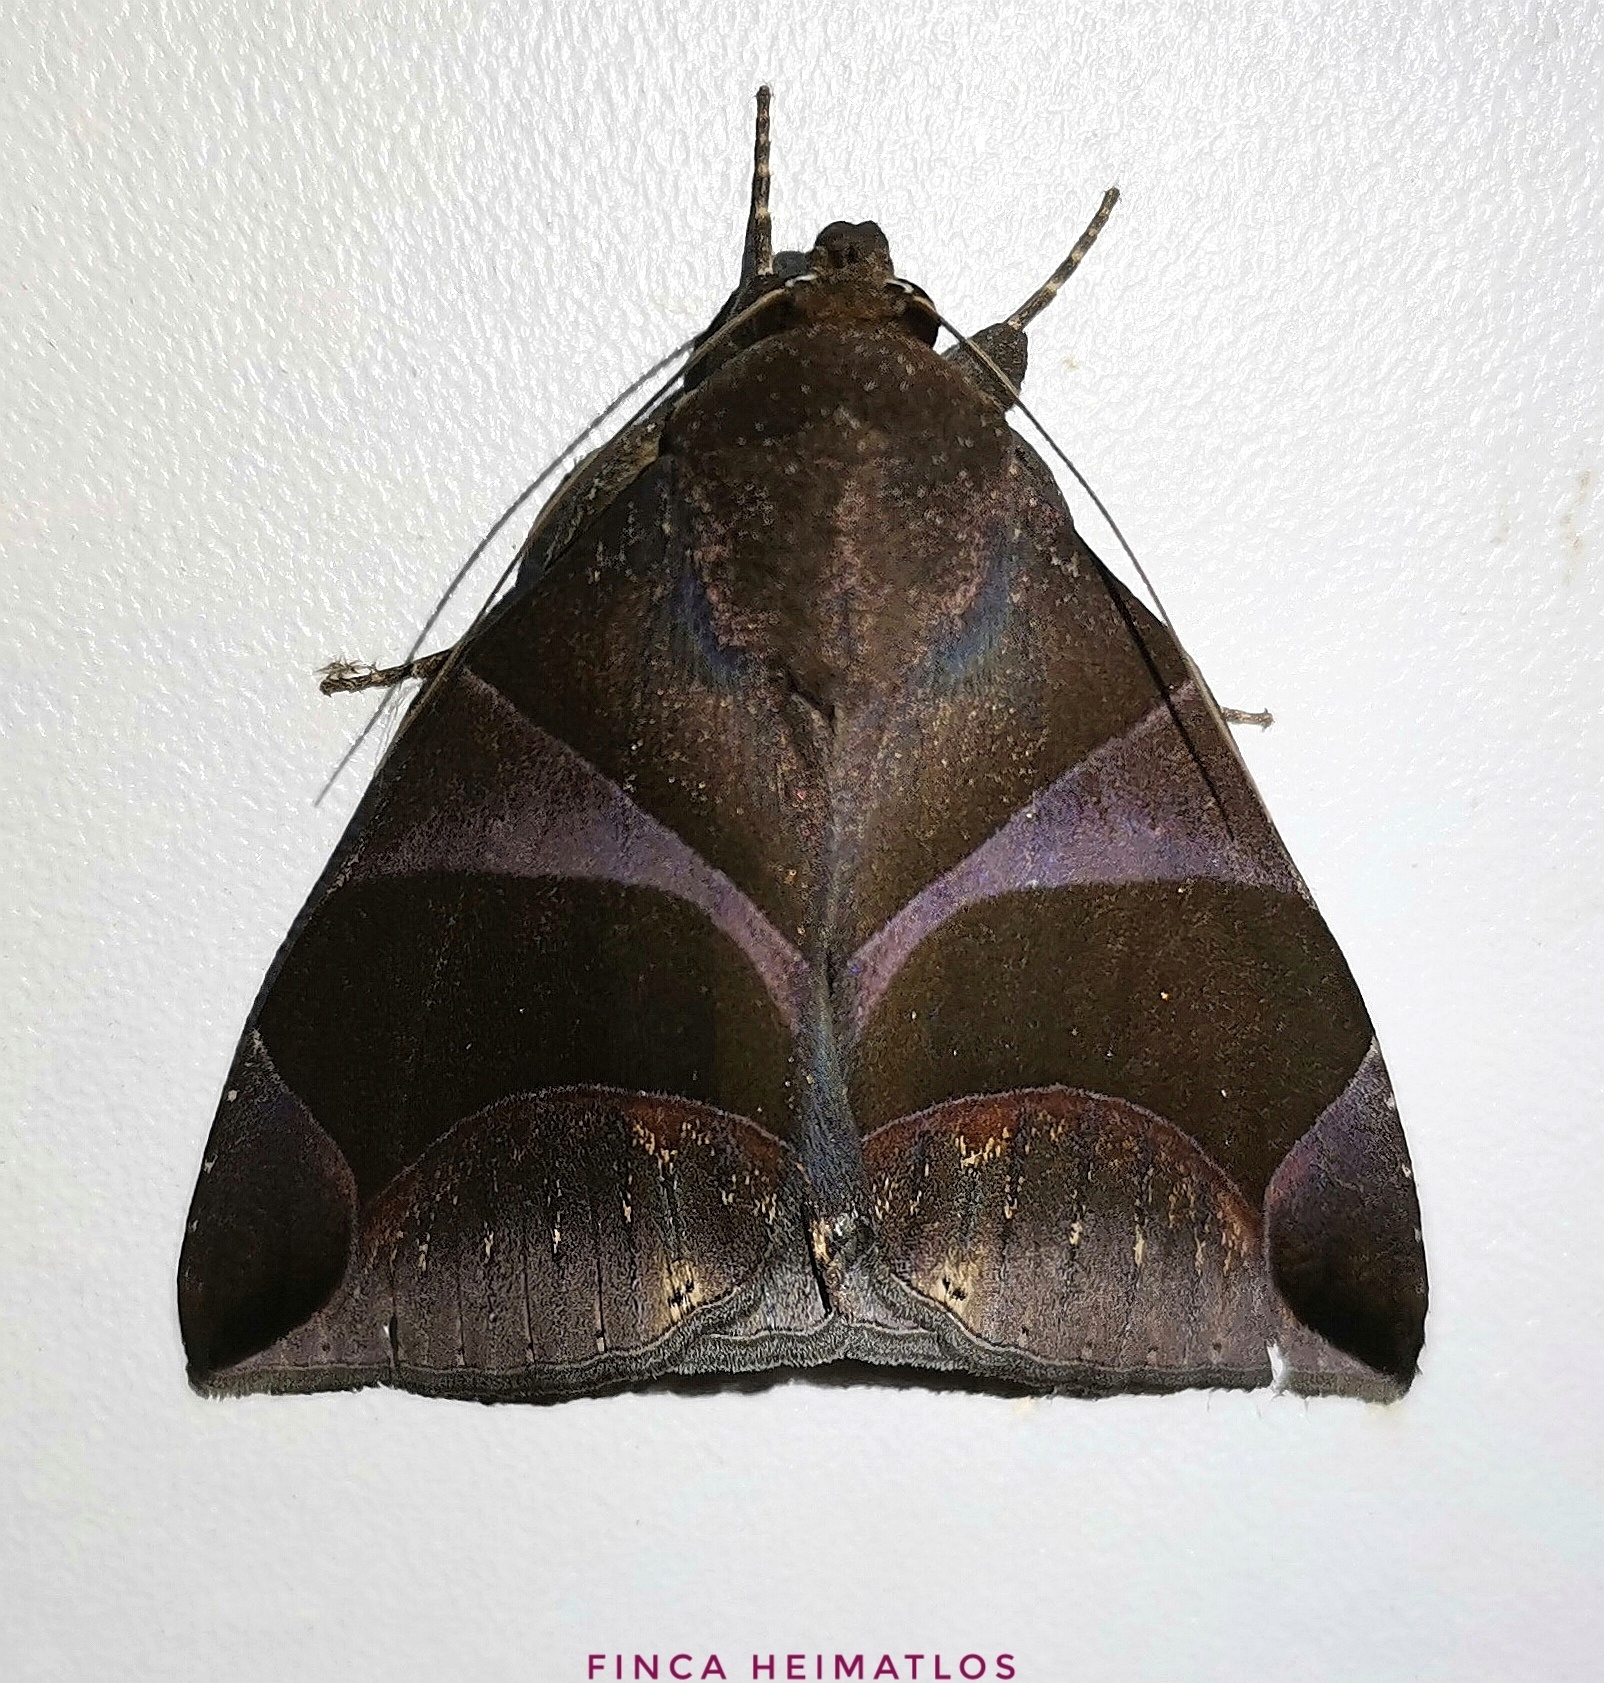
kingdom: Animalia
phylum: Arthropoda
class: Insecta
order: Lepidoptera
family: Erebidae
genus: Dysgonia
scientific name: Dysgonia purpurata
